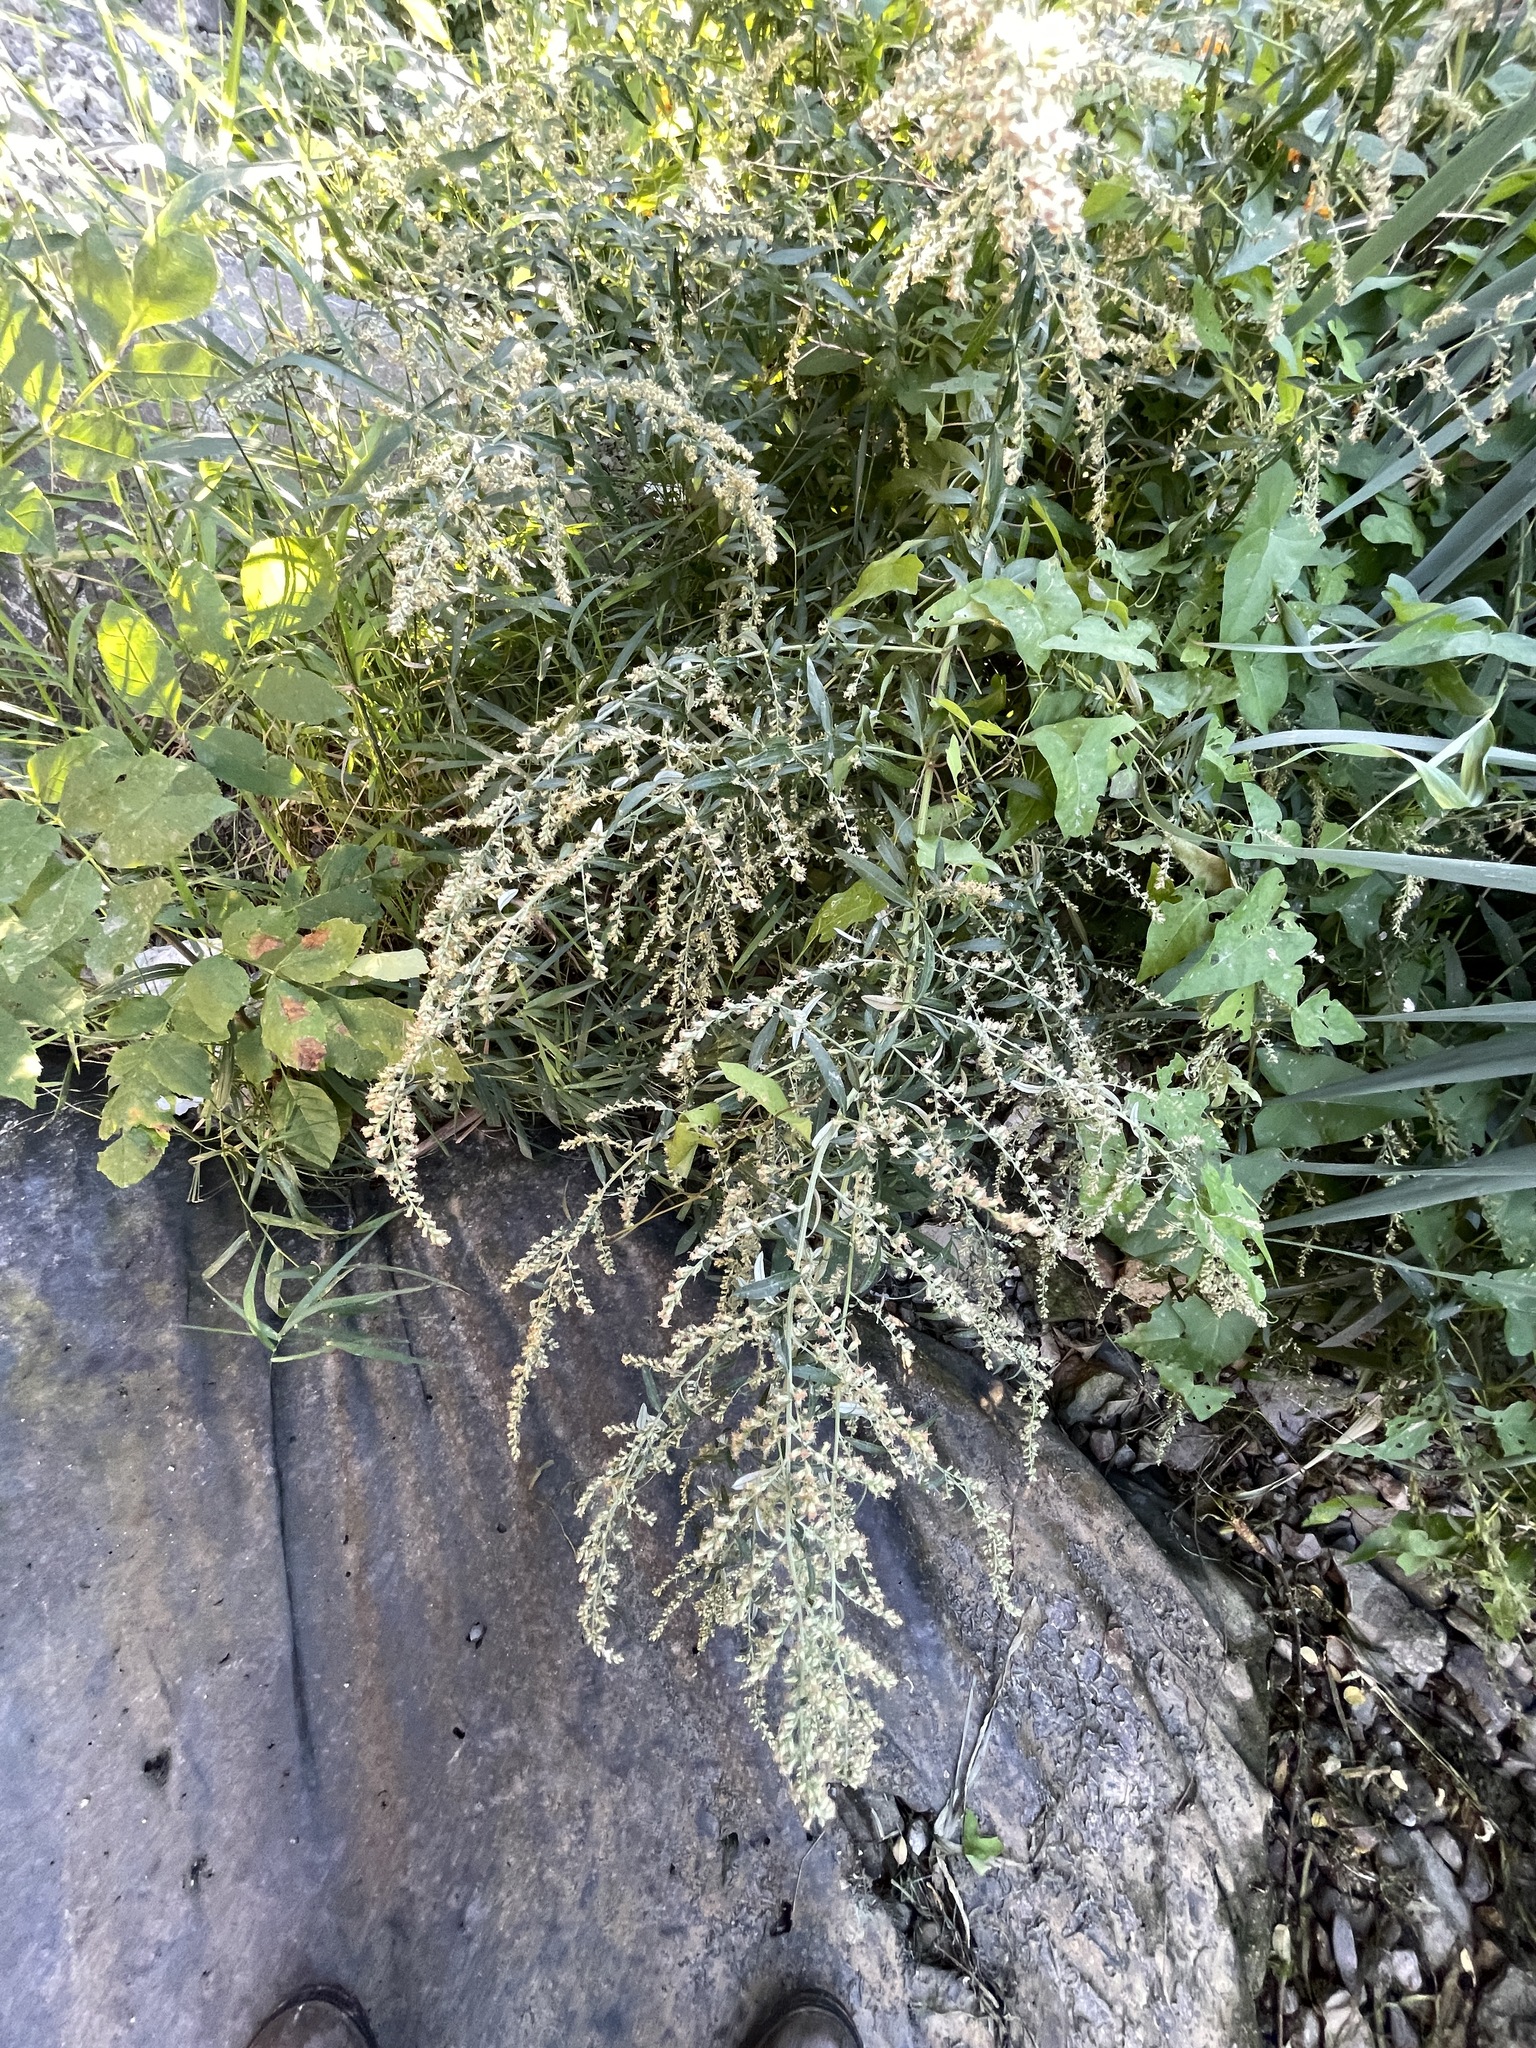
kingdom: Plantae
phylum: Tracheophyta
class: Magnoliopsida
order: Asterales
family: Asteraceae
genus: Artemisia
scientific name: Artemisia vulgaris
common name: Mugwort
